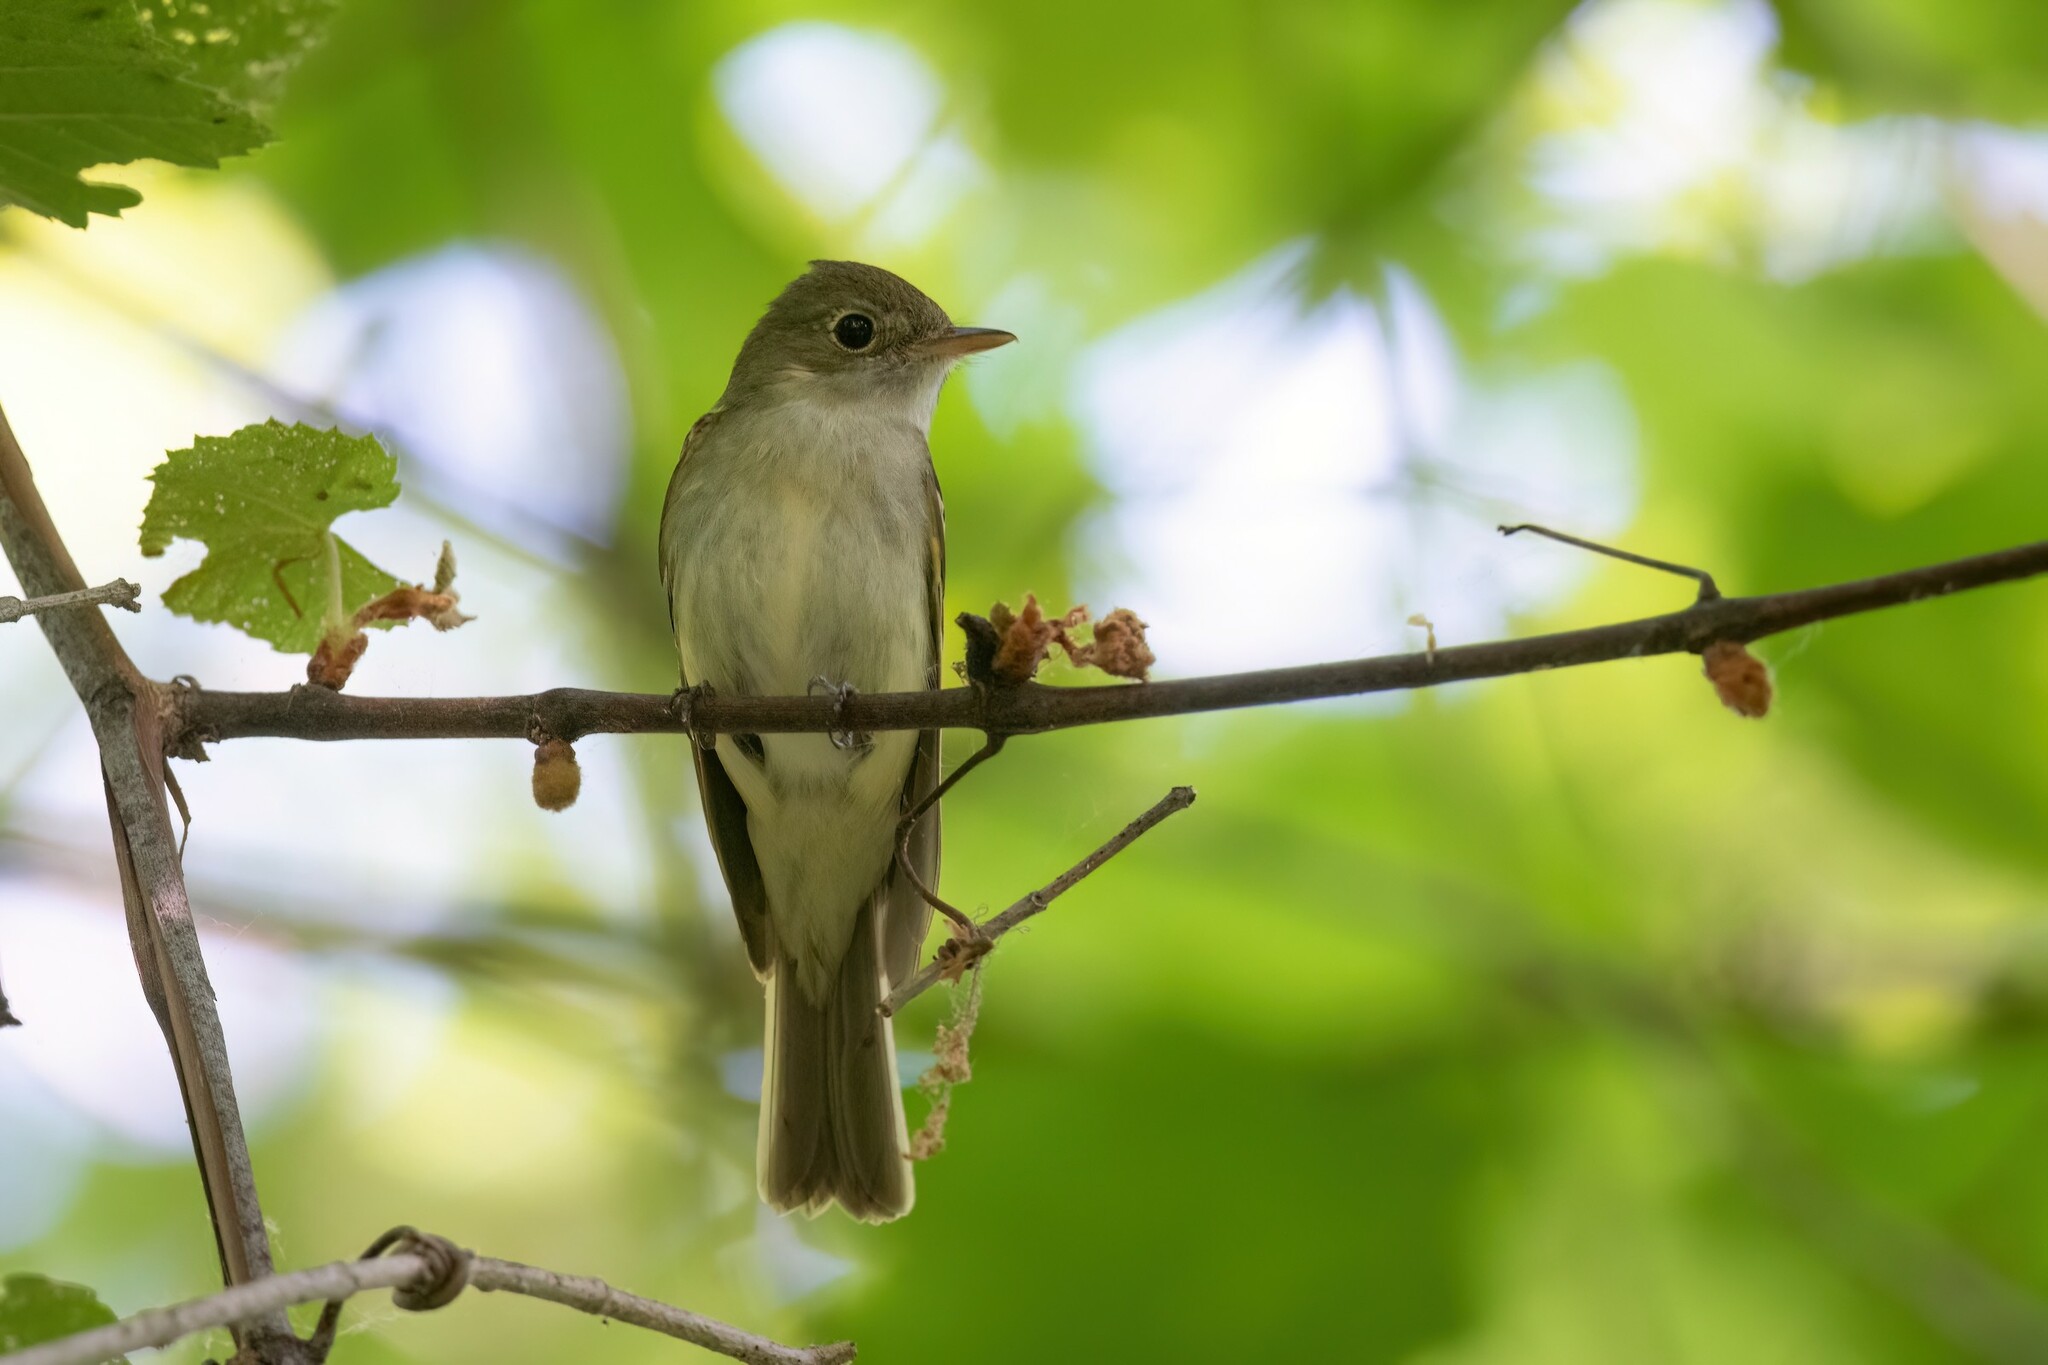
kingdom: Animalia
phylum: Chordata
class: Aves
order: Passeriformes
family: Tyrannidae
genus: Empidonax
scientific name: Empidonax virescens
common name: Acadian flycatcher
